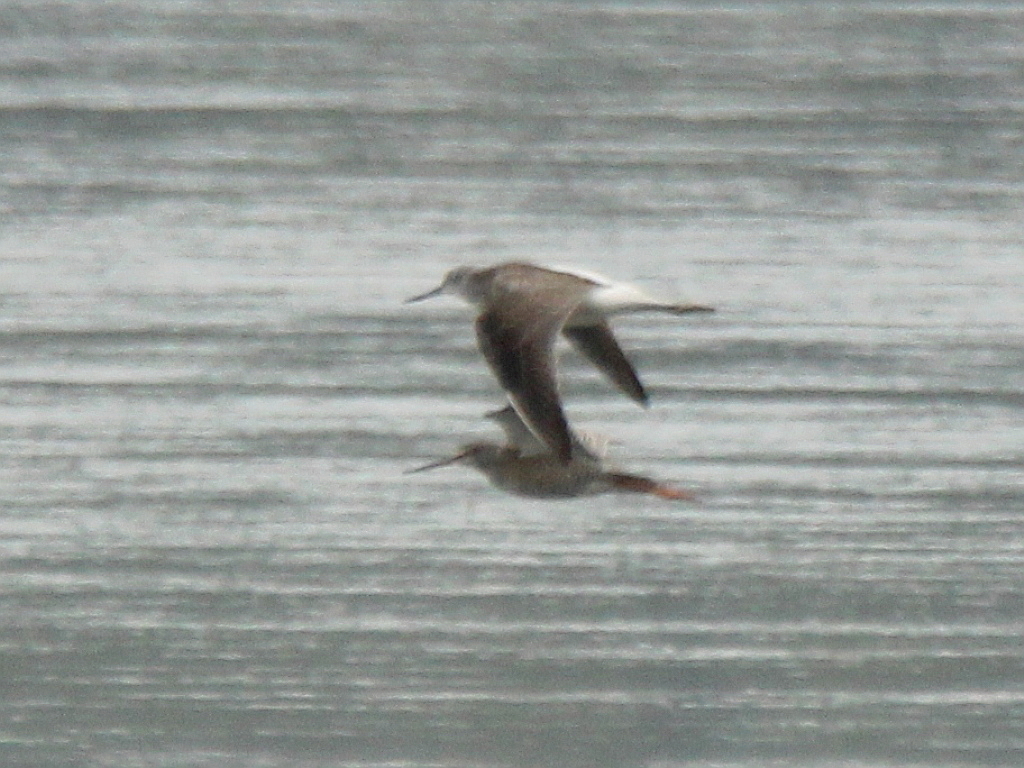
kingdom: Animalia
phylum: Chordata
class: Aves
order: Charadriiformes
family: Scolopacidae
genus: Tringa
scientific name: Tringa nebularia
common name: Common greenshank
